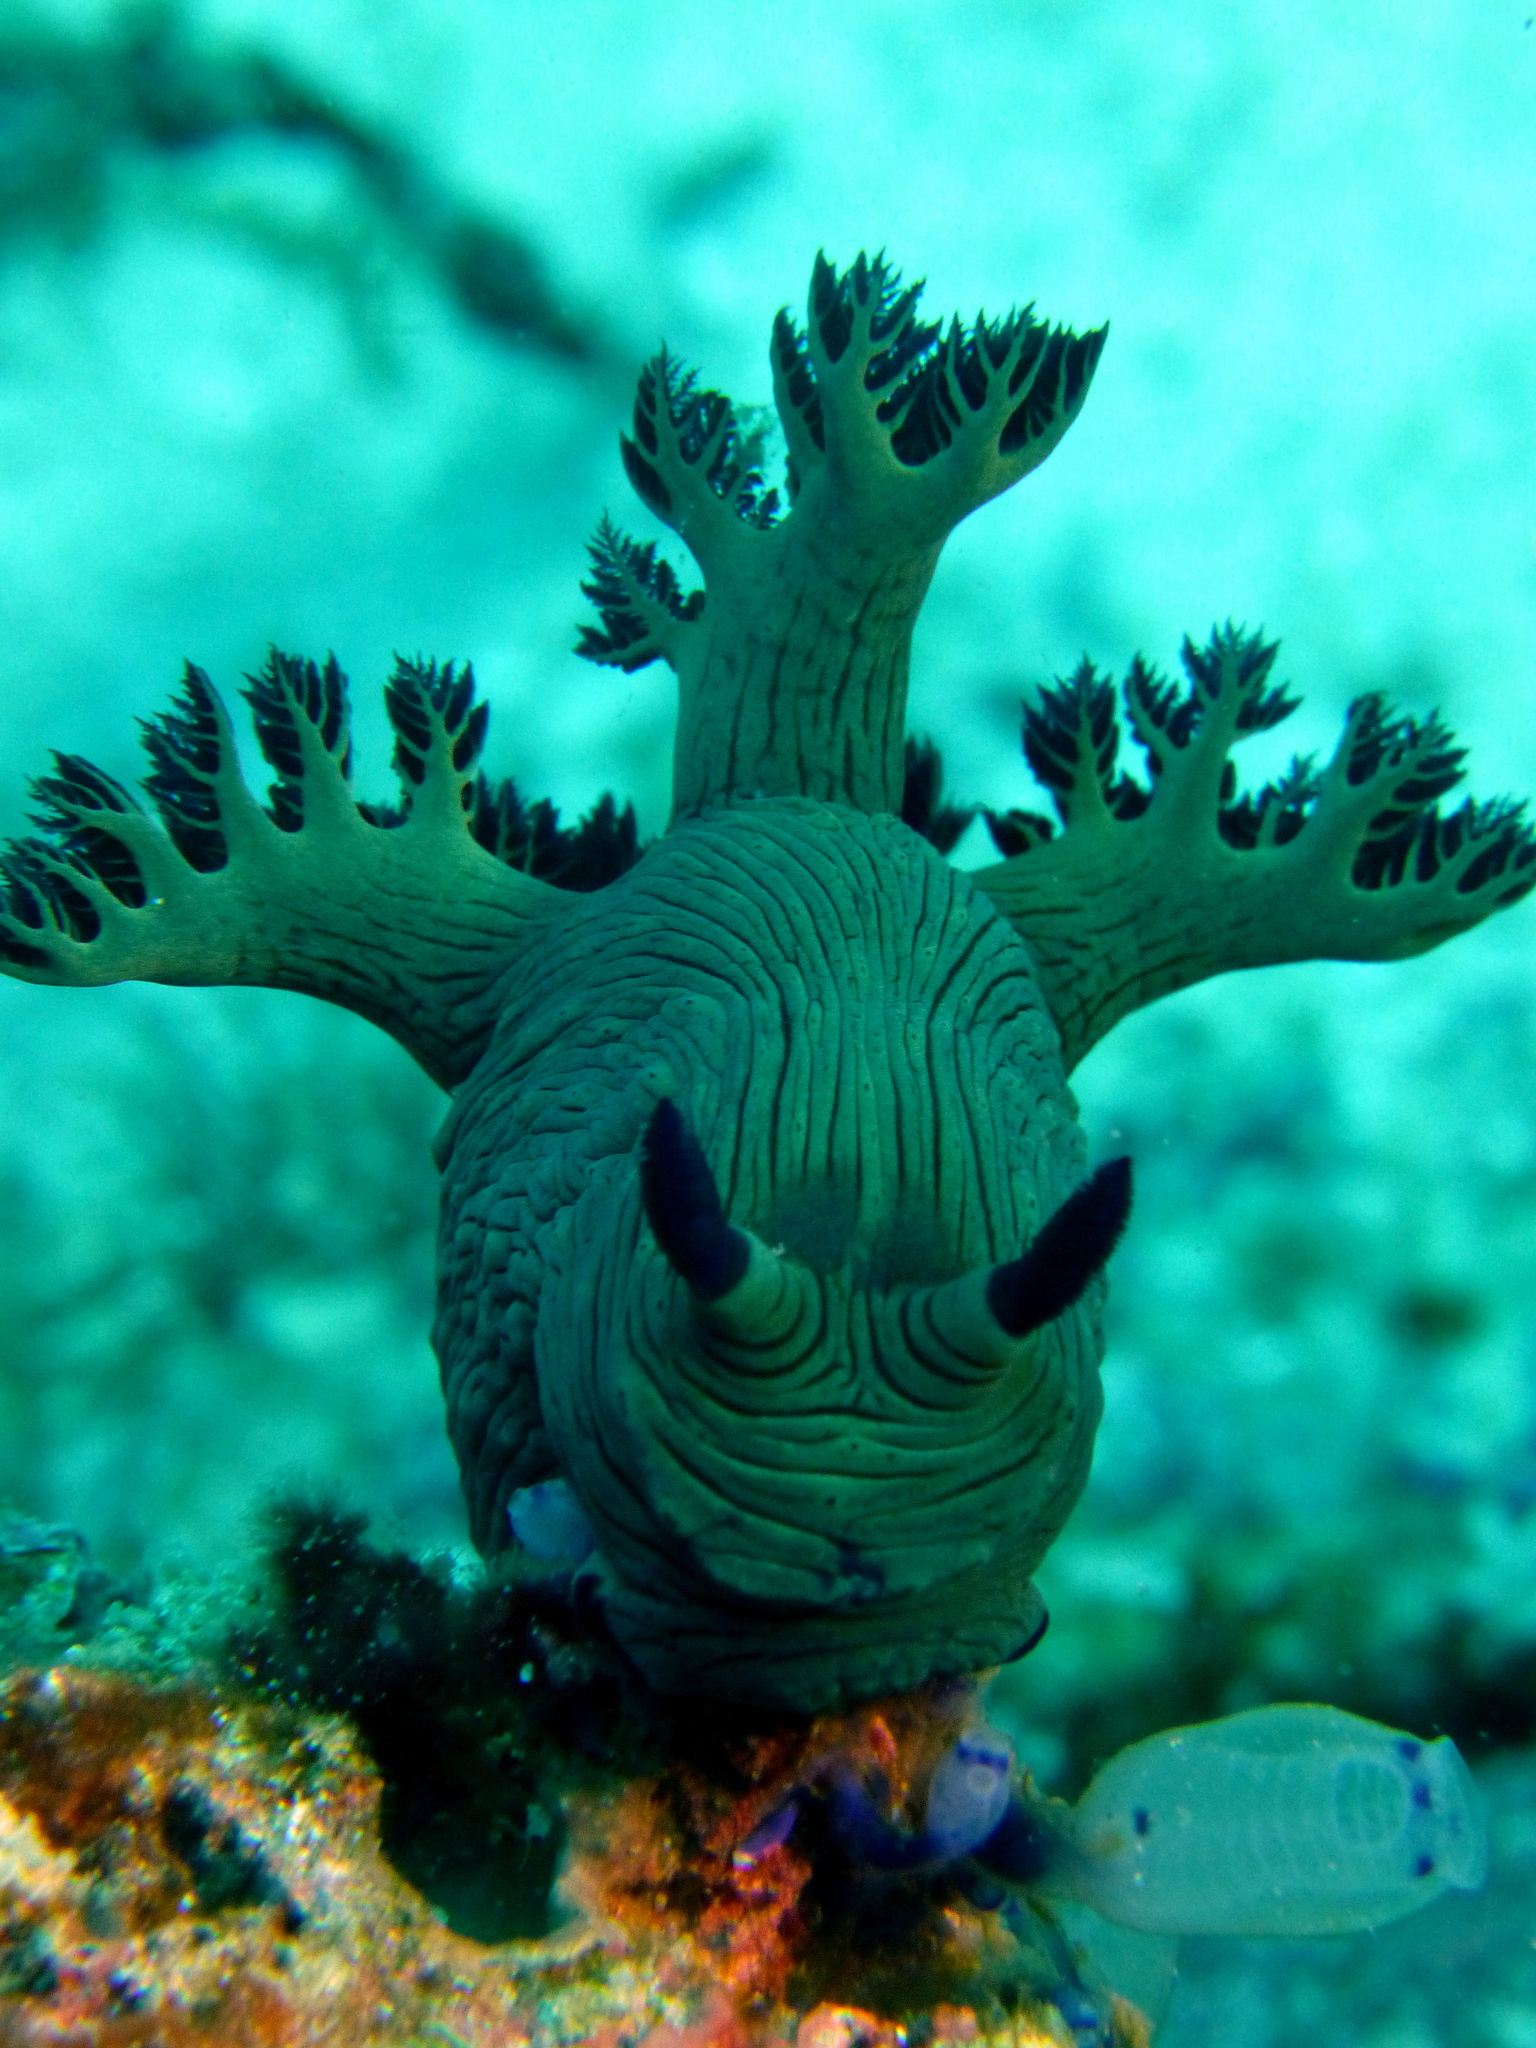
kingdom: Animalia
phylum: Mollusca
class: Gastropoda
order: Nudibranchia
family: Polyceridae
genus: Nembrotha
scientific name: Nembrotha milleri
